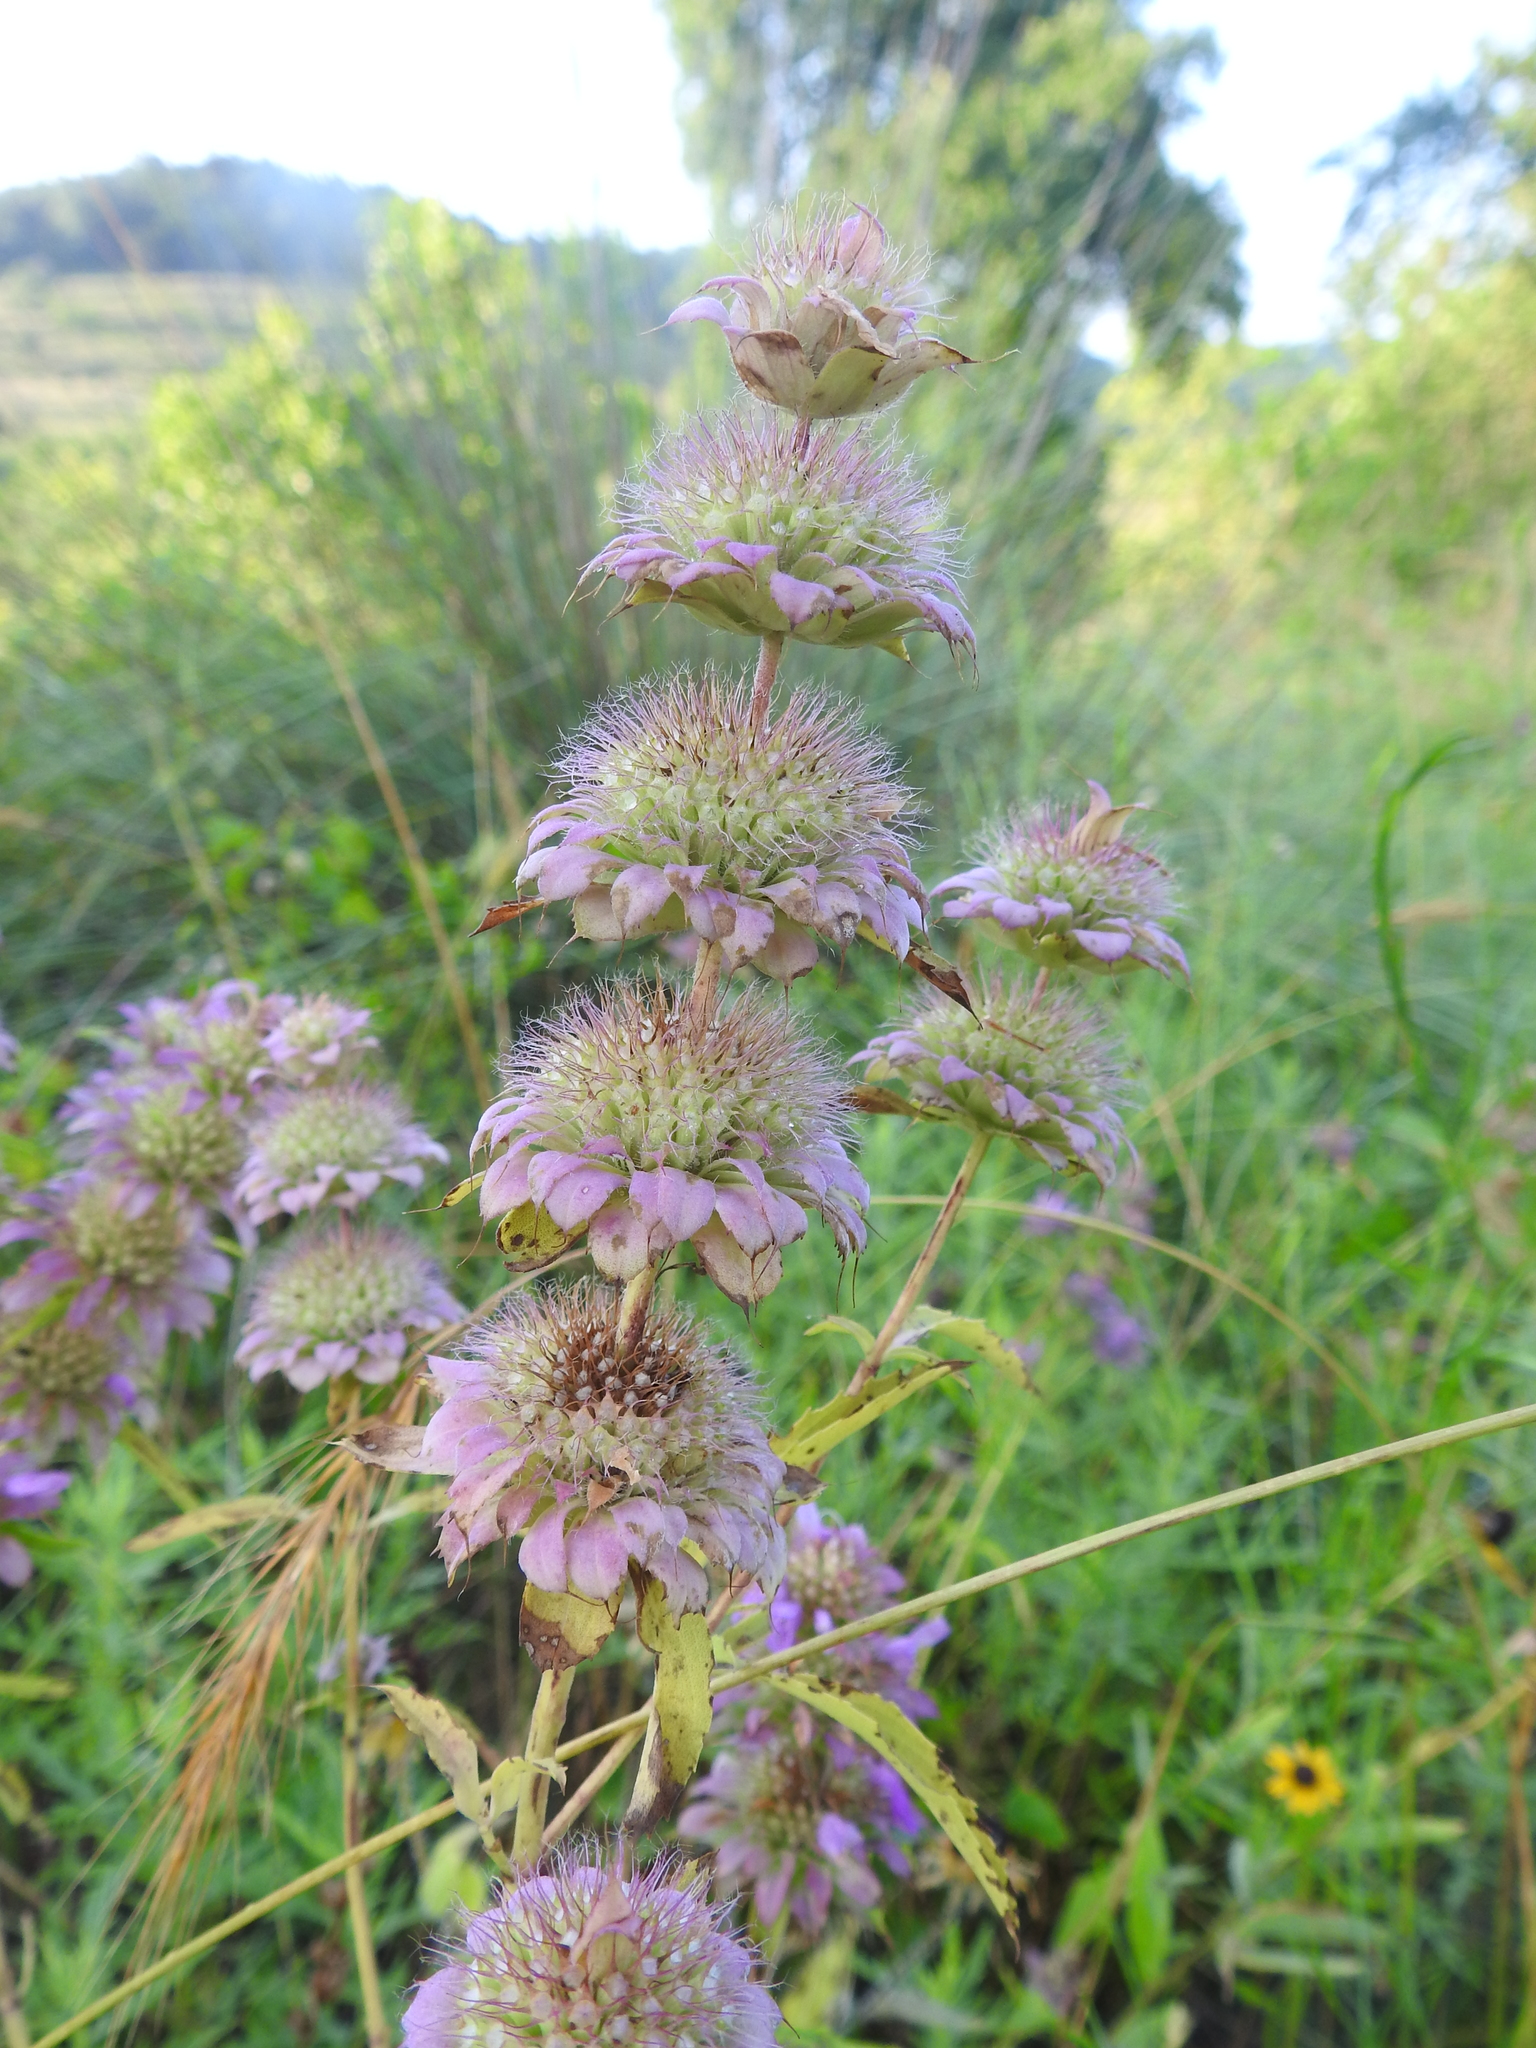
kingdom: Plantae
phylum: Tracheophyta
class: Magnoliopsida
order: Lamiales
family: Lamiaceae
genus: Monarda
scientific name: Monarda citriodora
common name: Lemon beebalm
